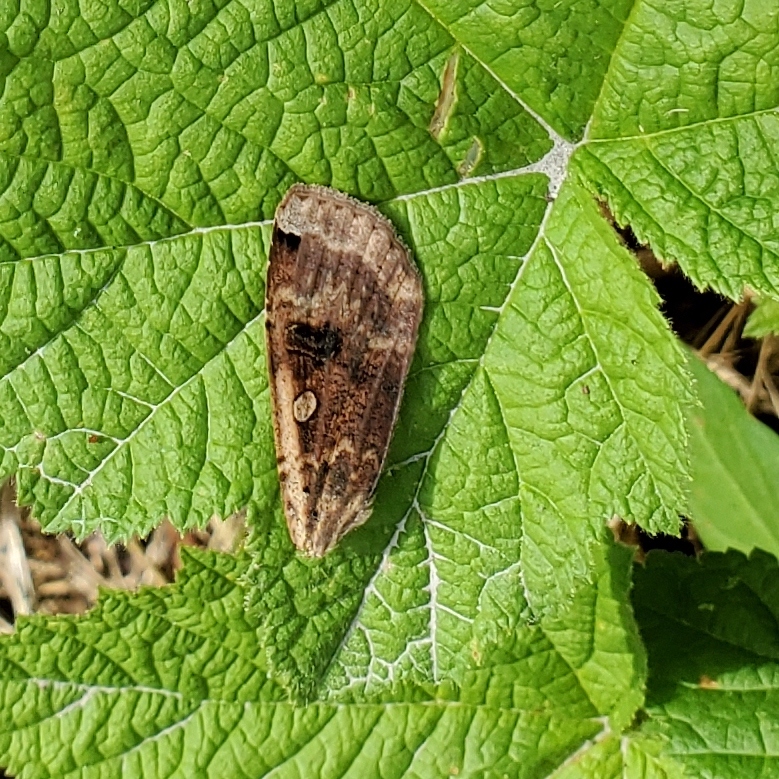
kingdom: Animalia
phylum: Arthropoda
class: Insecta
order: Lepidoptera
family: Noctuidae
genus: Noctua
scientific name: Noctua pronuba
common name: Large yellow underwing
